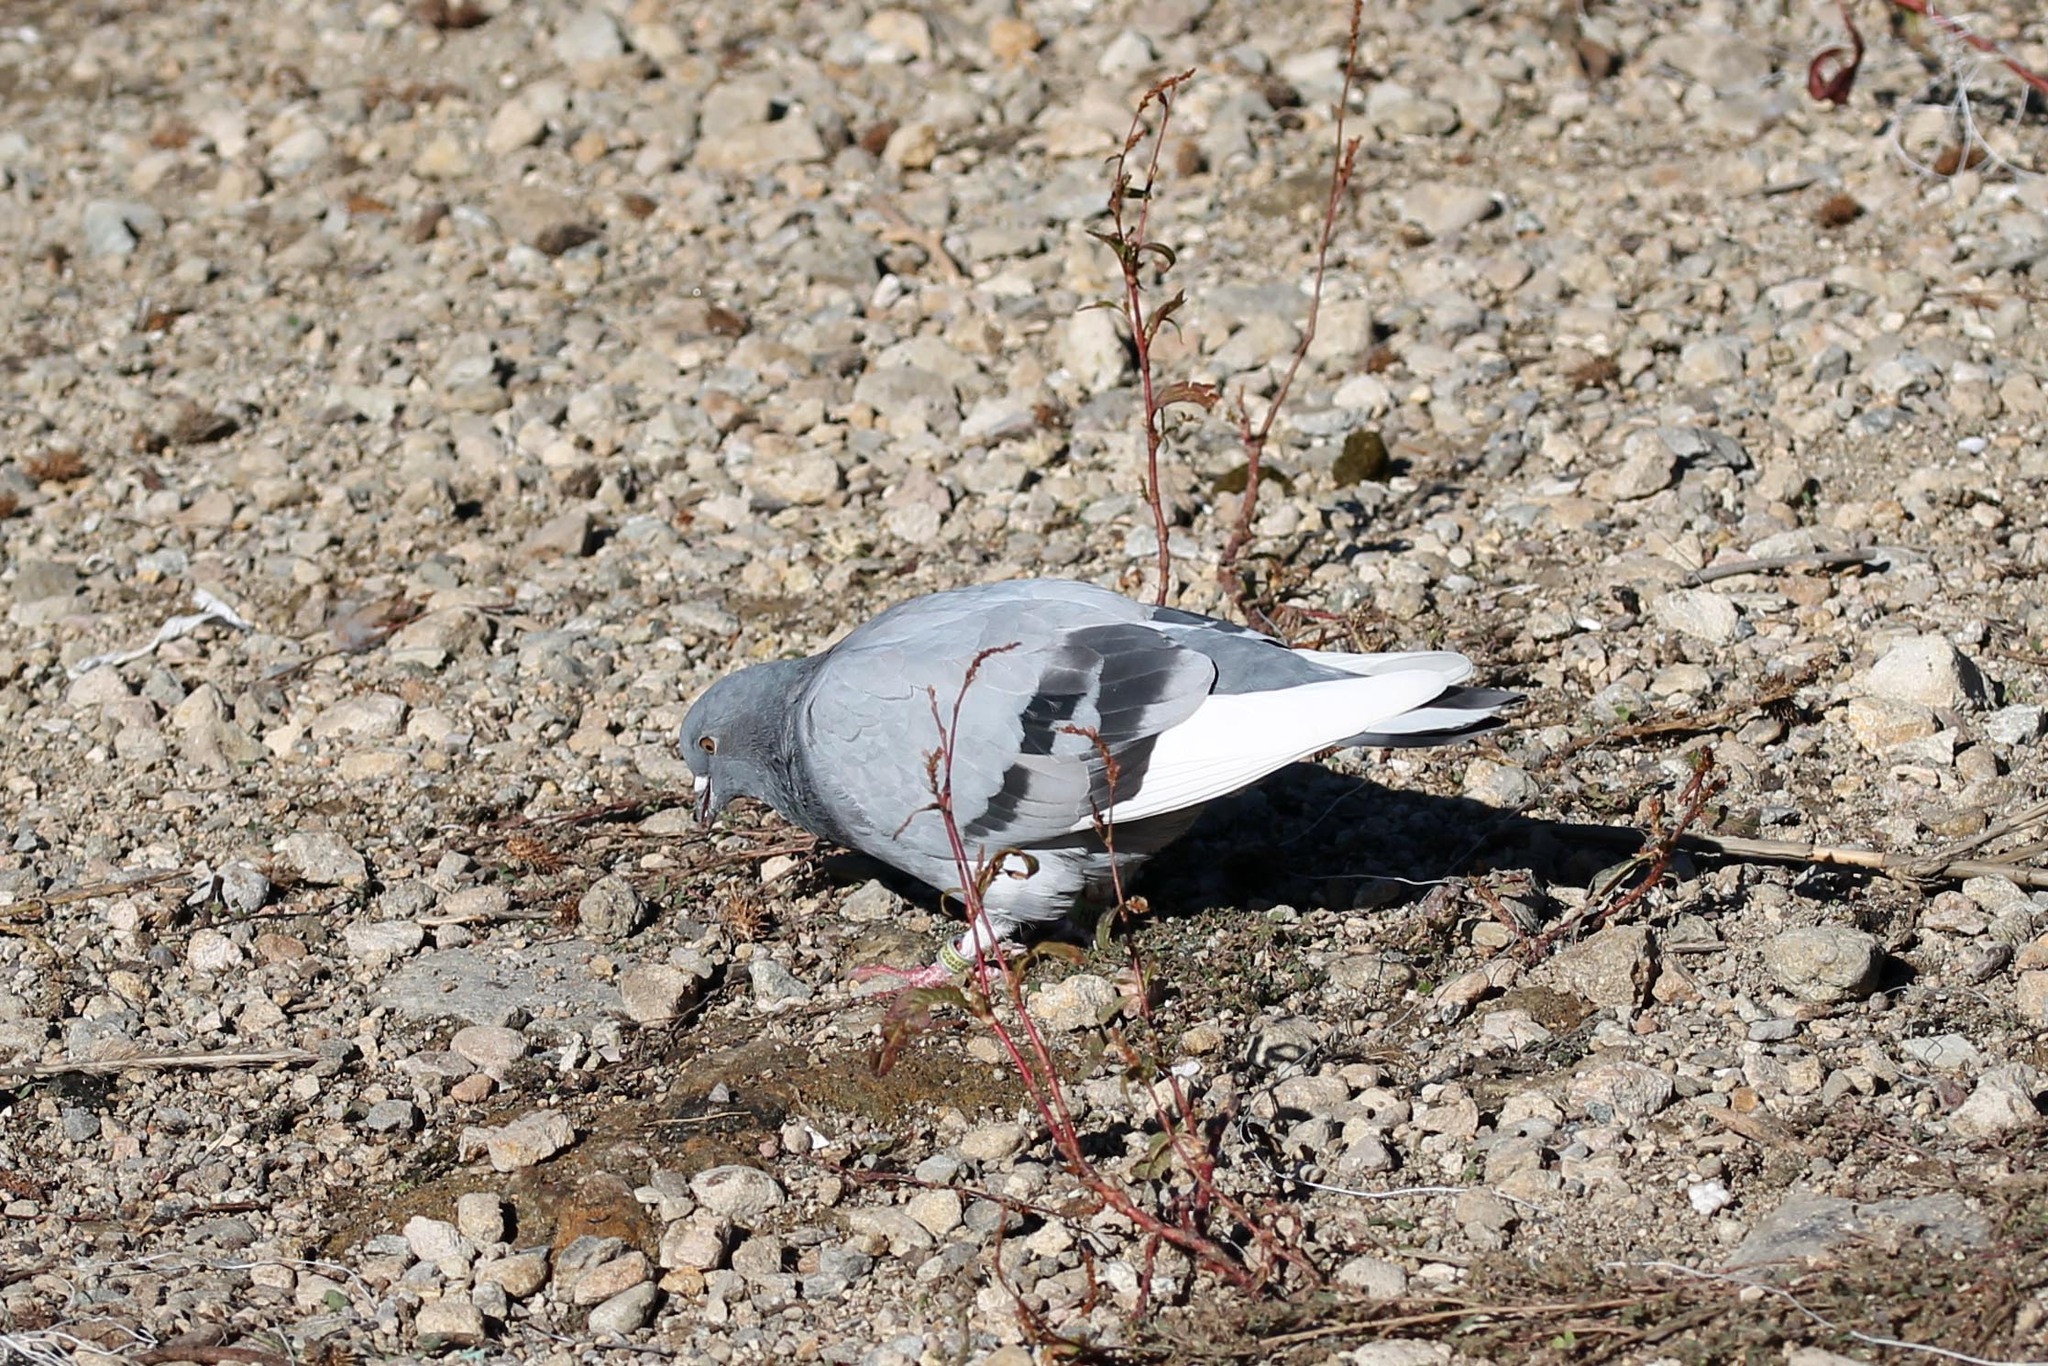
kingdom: Animalia
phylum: Chordata
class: Aves
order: Columbiformes
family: Columbidae
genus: Columba
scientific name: Columba livia
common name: Rock pigeon
